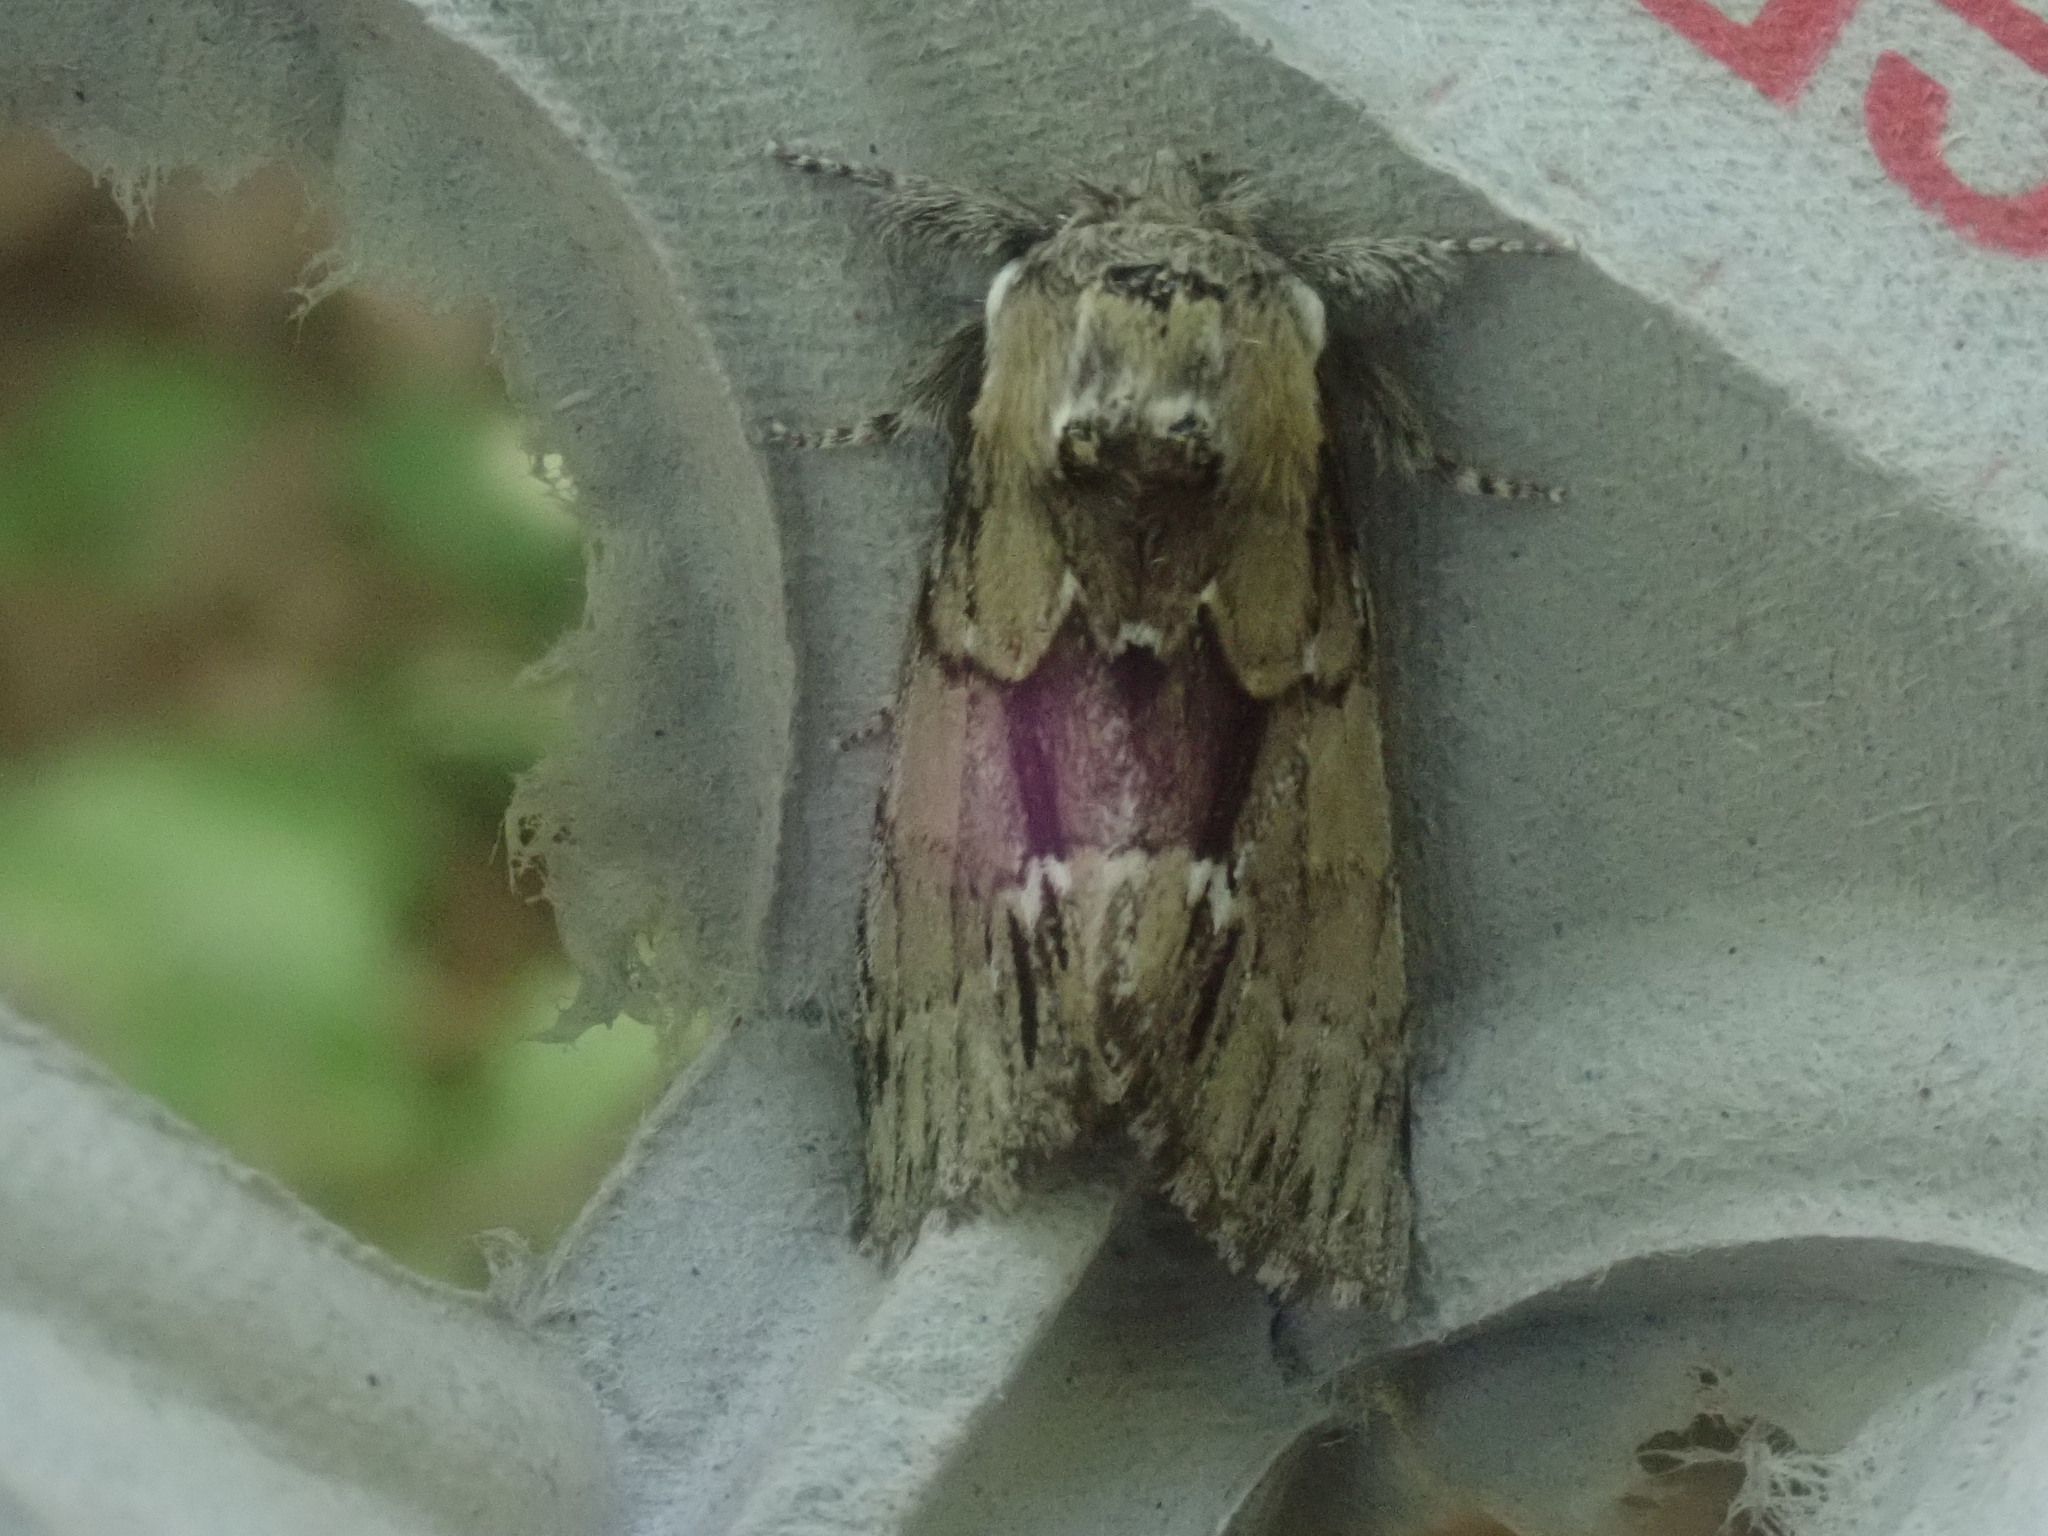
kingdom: Animalia
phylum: Arthropoda
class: Insecta
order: Lepidoptera
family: Notodontidae
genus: Paraeschra
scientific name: Paraeschra georgica
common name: Georgian prominent
